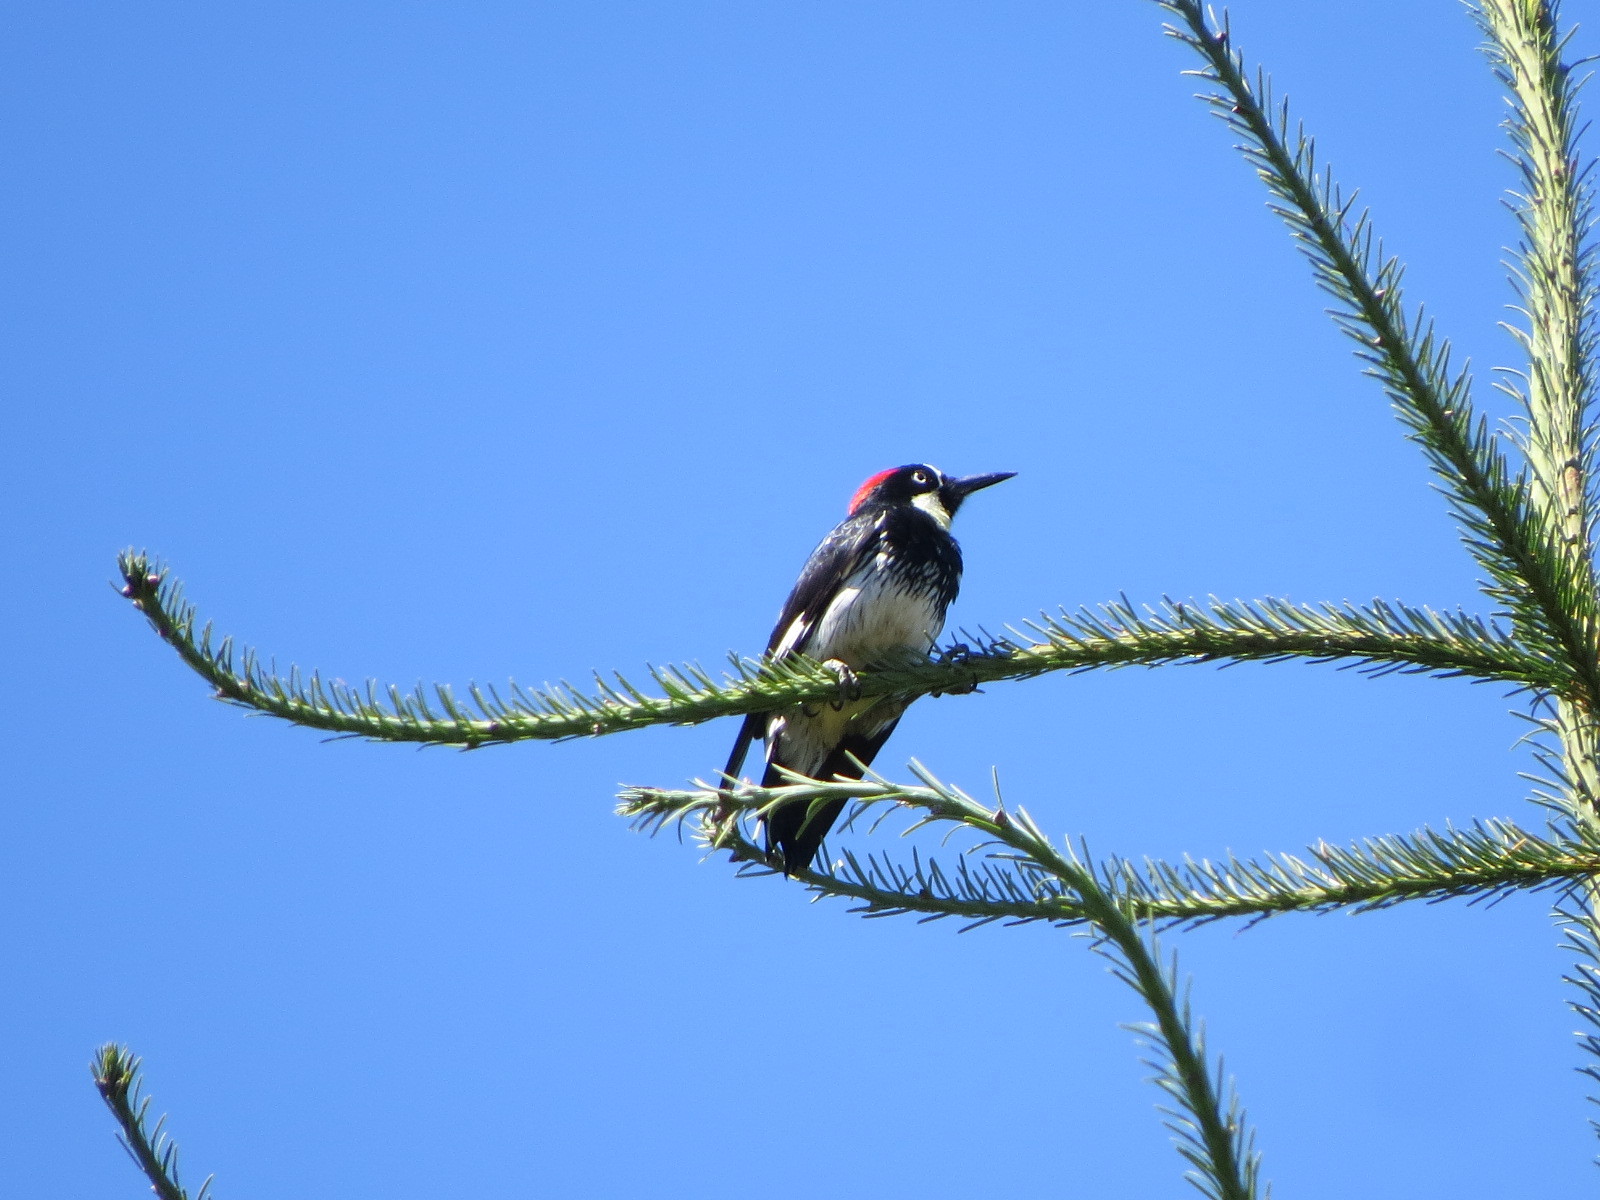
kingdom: Animalia
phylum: Chordata
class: Aves
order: Piciformes
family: Picidae
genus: Melanerpes
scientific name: Melanerpes formicivorus
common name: Acorn woodpecker
